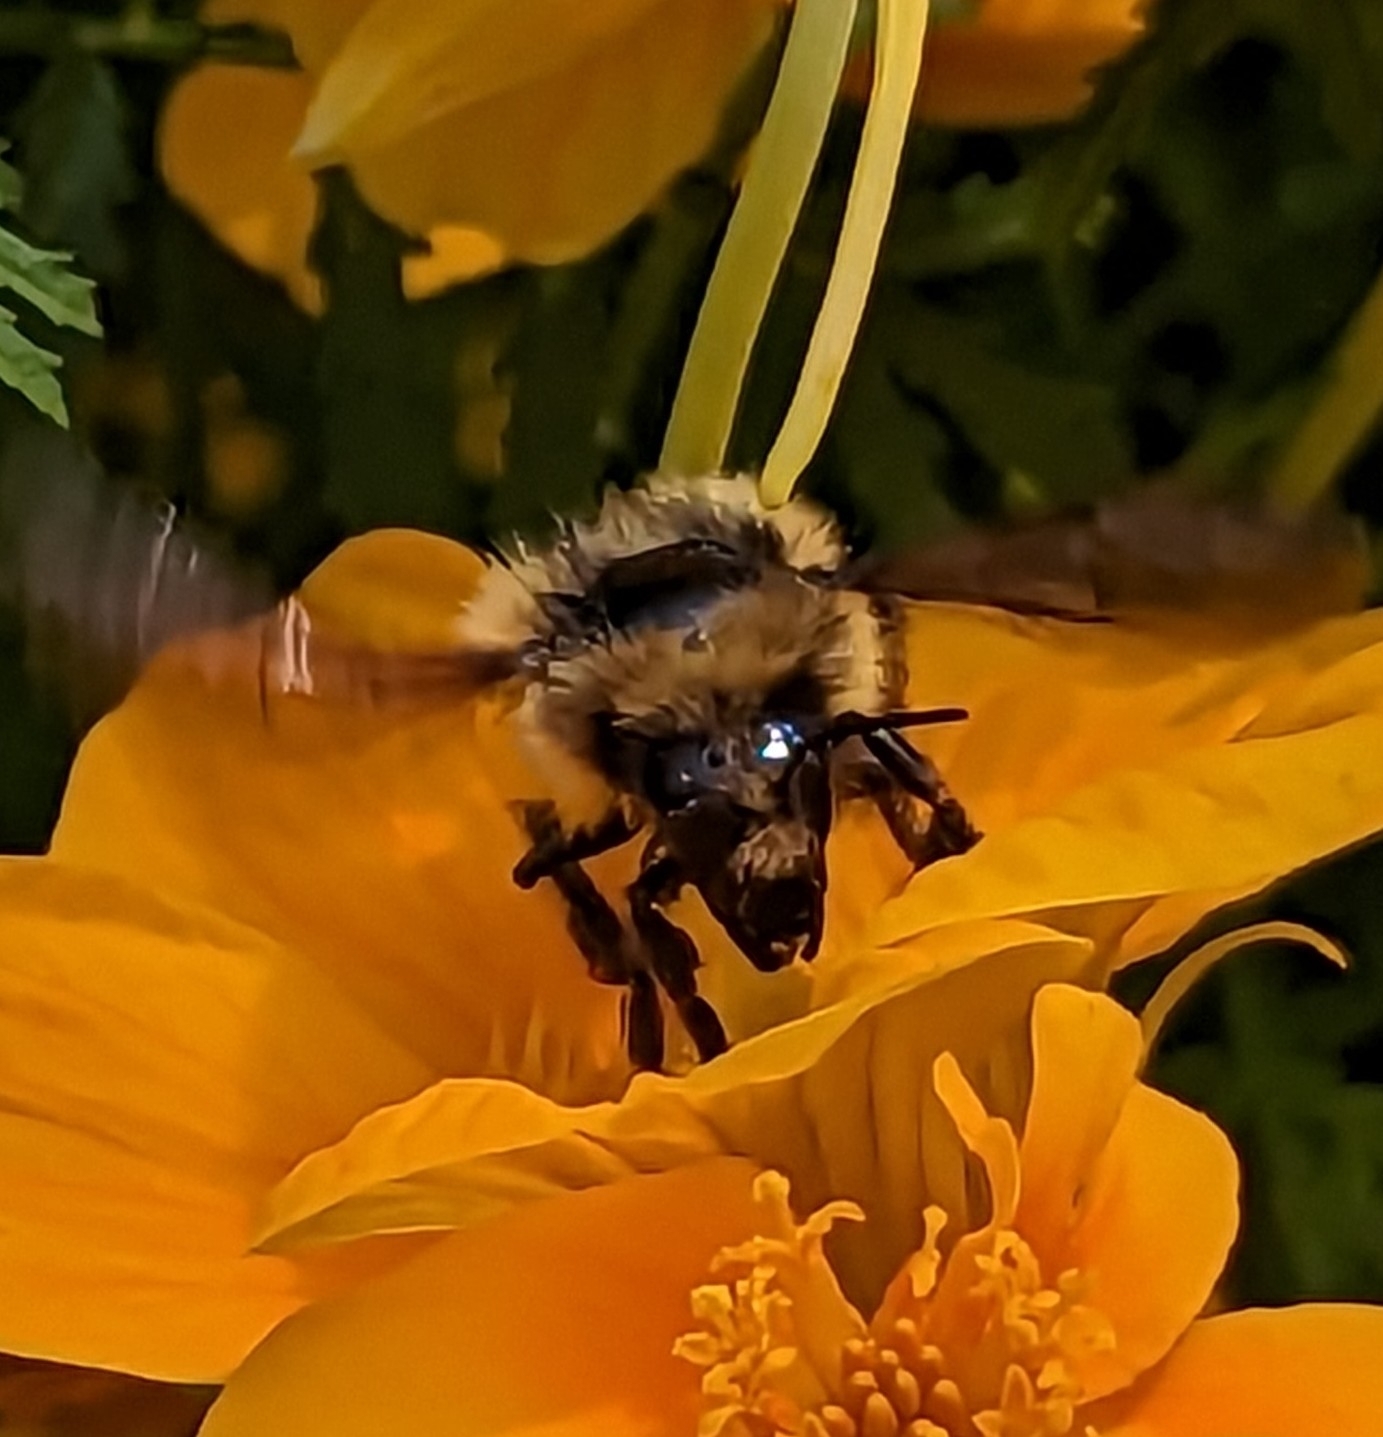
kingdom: Animalia
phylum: Arthropoda
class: Insecta
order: Hymenoptera
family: Apidae
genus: Bombus
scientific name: Bombus flavifrons
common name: Yellow head bumble bee
